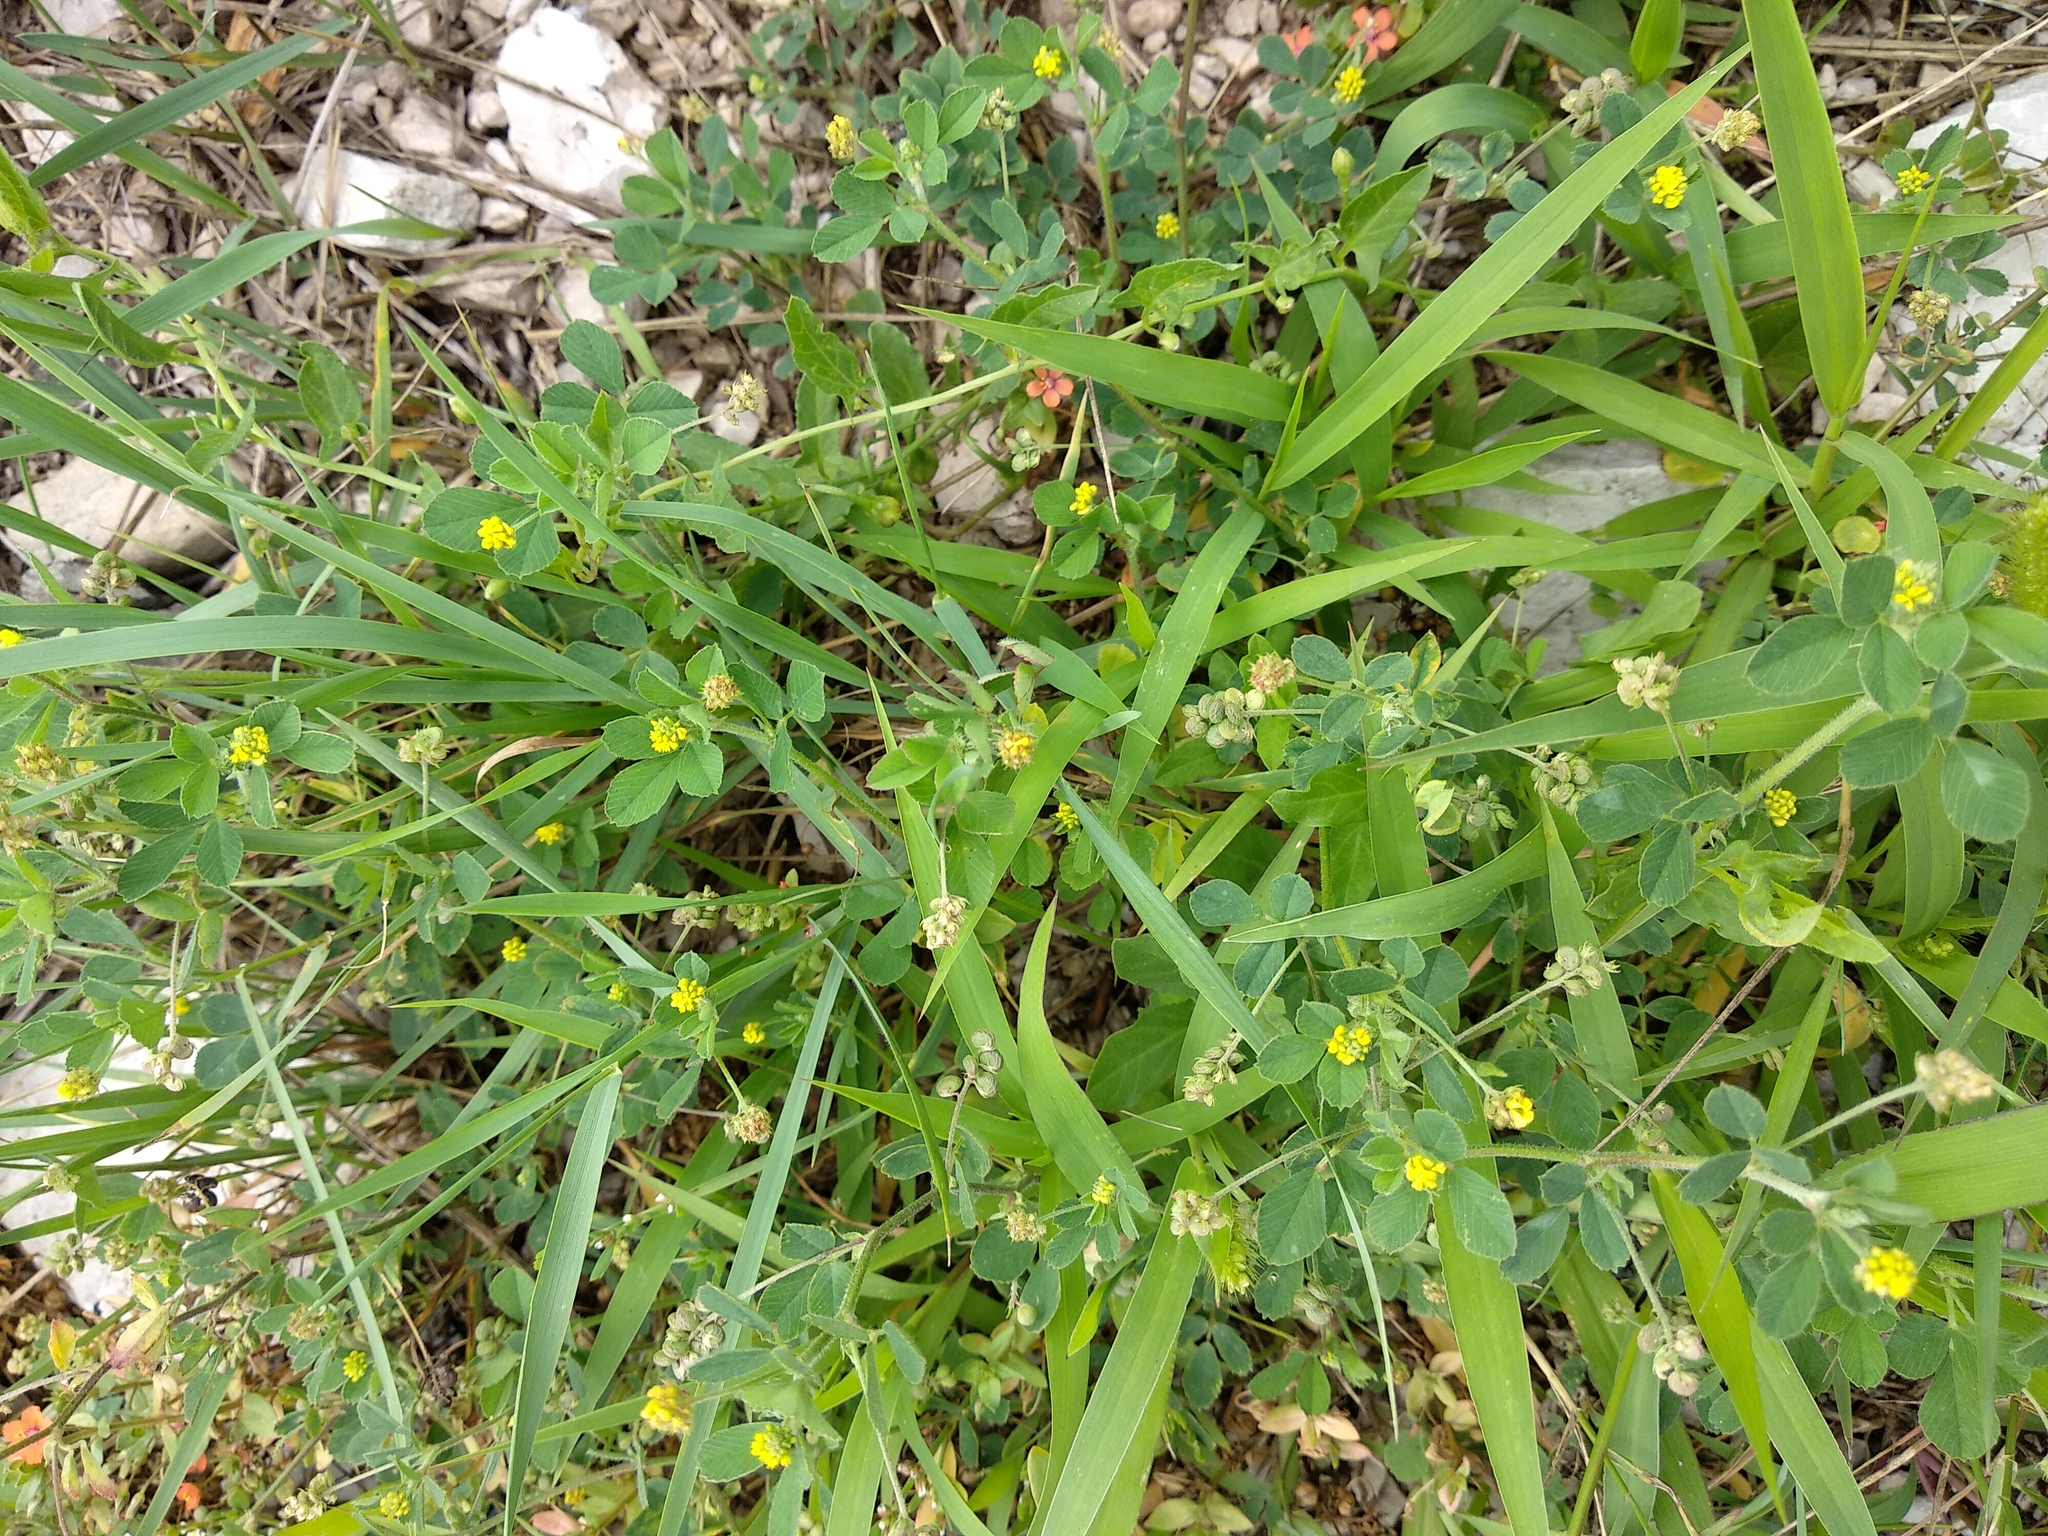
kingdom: Plantae
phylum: Tracheophyta
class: Magnoliopsida
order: Fabales
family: Fabaceae
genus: Medicago
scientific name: Medicago lupulina
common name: Black medick
